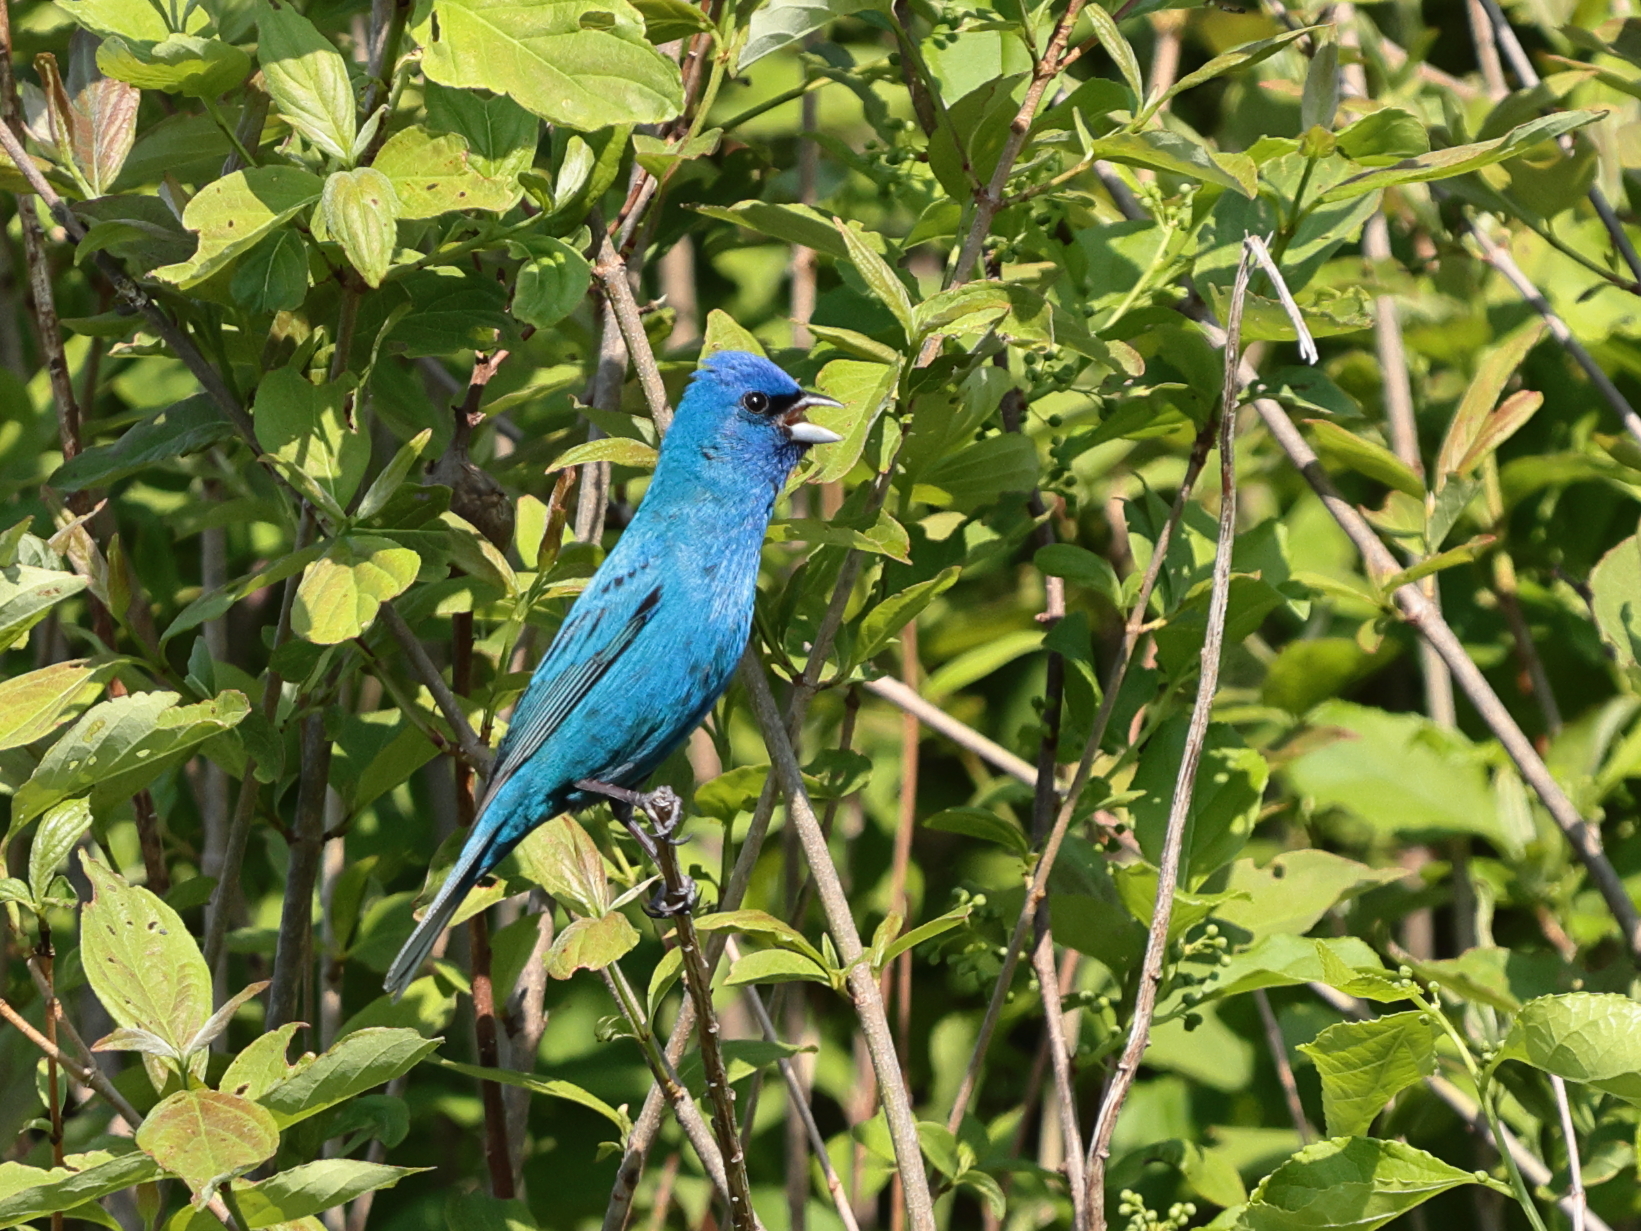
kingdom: Animalia
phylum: Chordata
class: Aves
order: Passeriformes
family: Cardinalidae
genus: Passerina
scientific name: Passerina cyanea
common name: Indigo bunting
